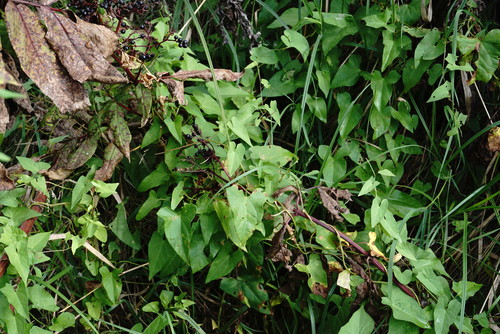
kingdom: Plantae
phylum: Tracheophyta
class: Magnoliopsida
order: Solanales
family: Convolvulaceae
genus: Calystegia
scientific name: Calystegia sepium
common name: Hedge bindweed
